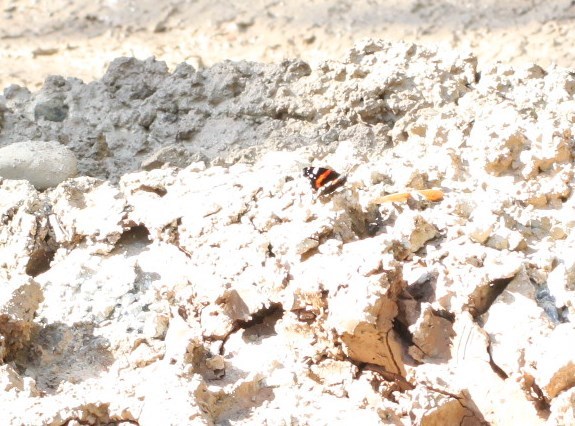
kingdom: Animalia
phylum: Arthropoda
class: Insecta
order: Lepidoptera
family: Nymphalidae
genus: Vanessa
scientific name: Vanessa atalanta
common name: Red admiral
